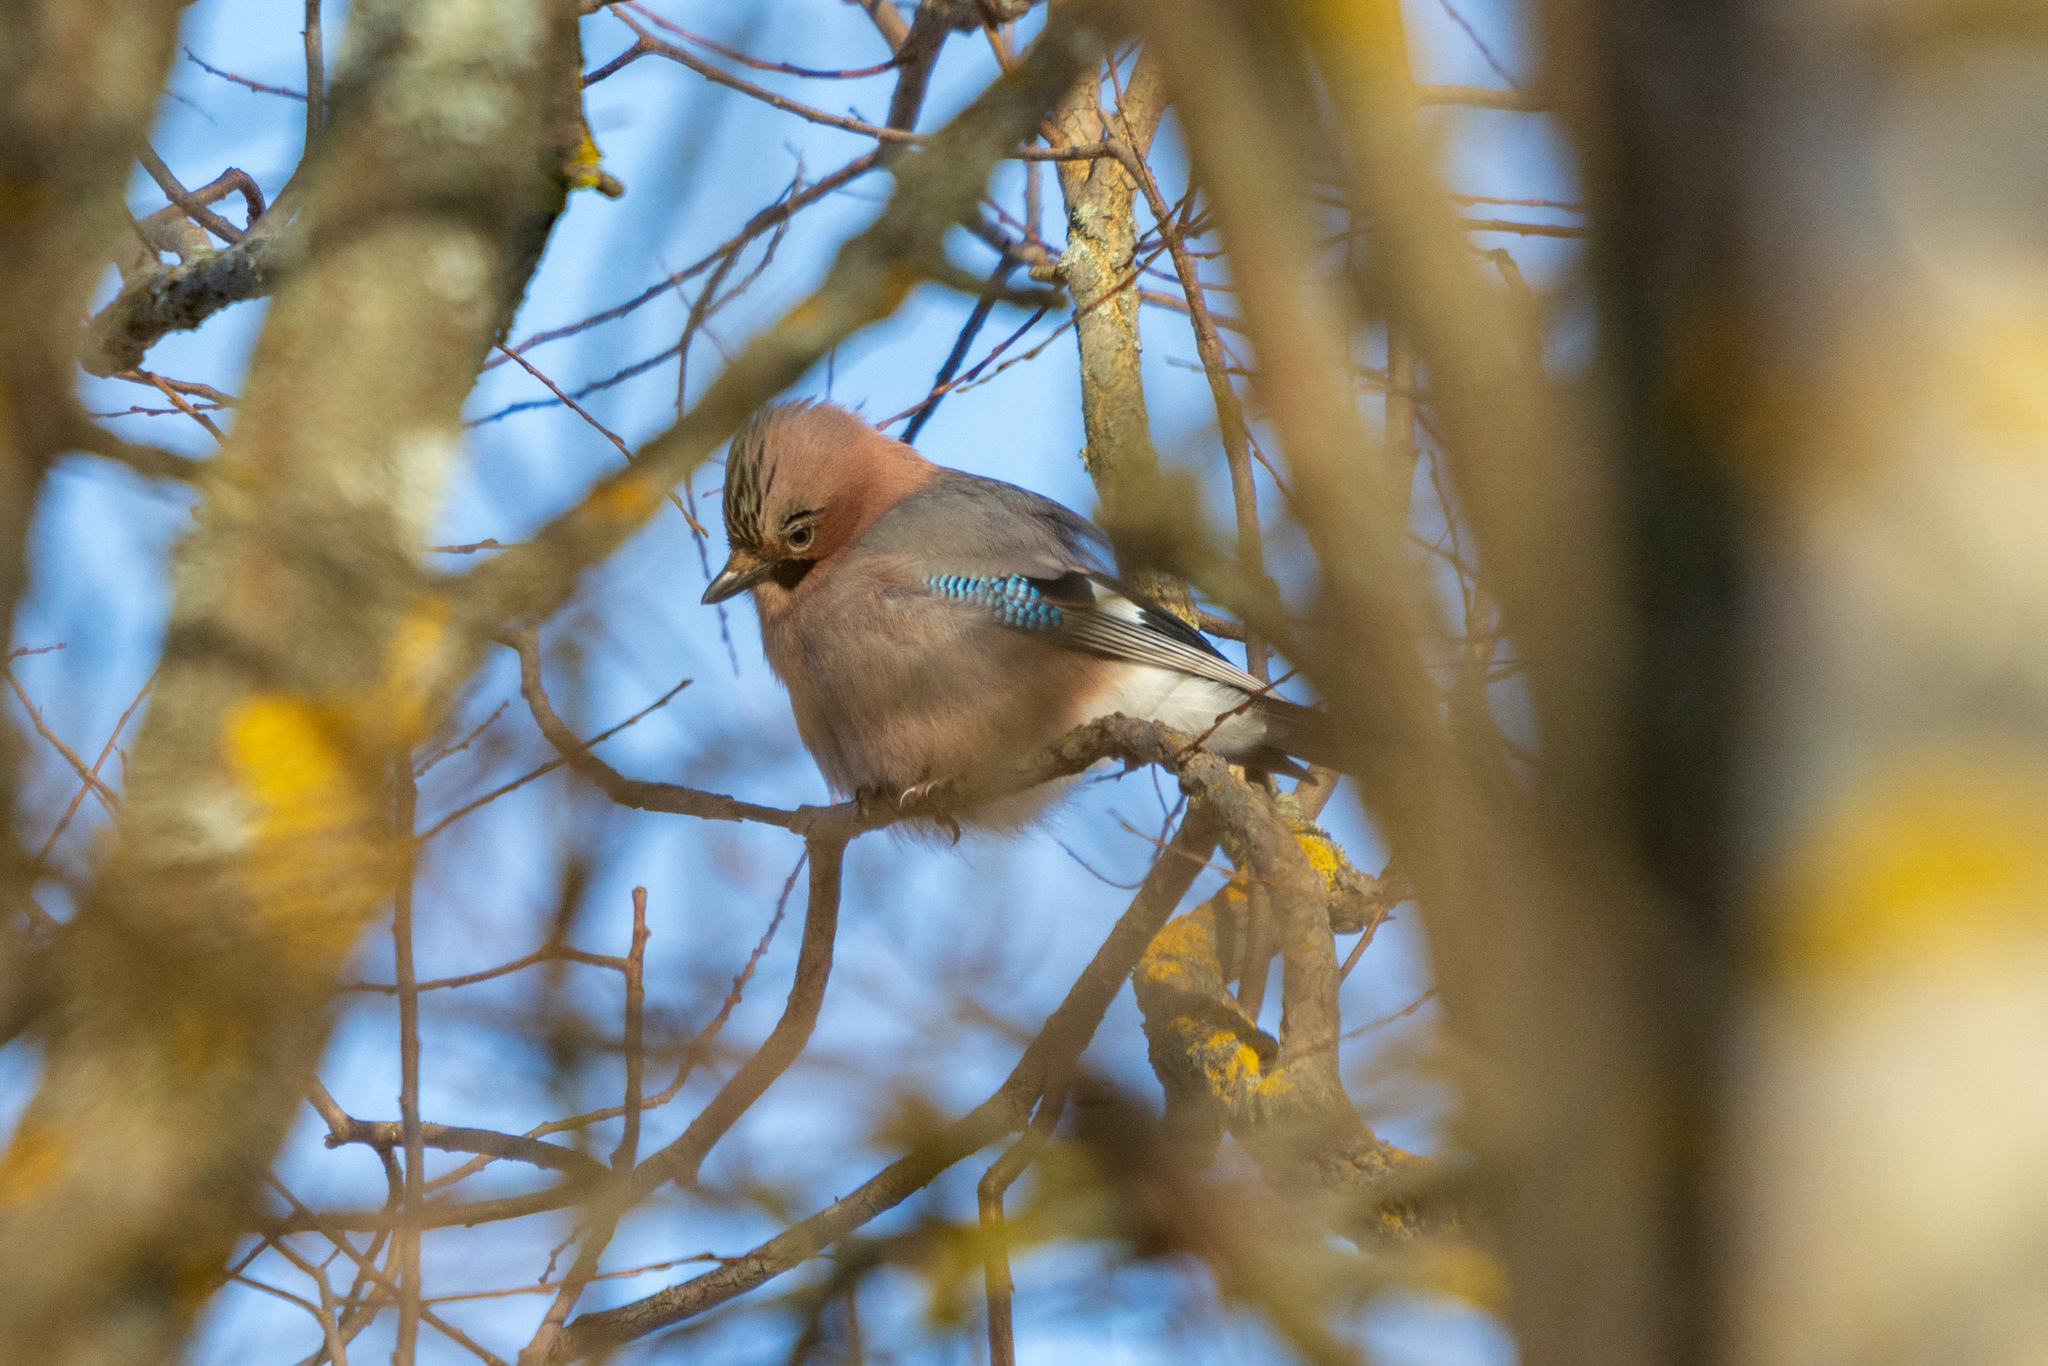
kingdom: Animalia
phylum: Chordata
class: Aves
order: Passeriformes
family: Corvidae
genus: Garrulus
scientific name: Garrulus glandarius
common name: Eurasian jay
